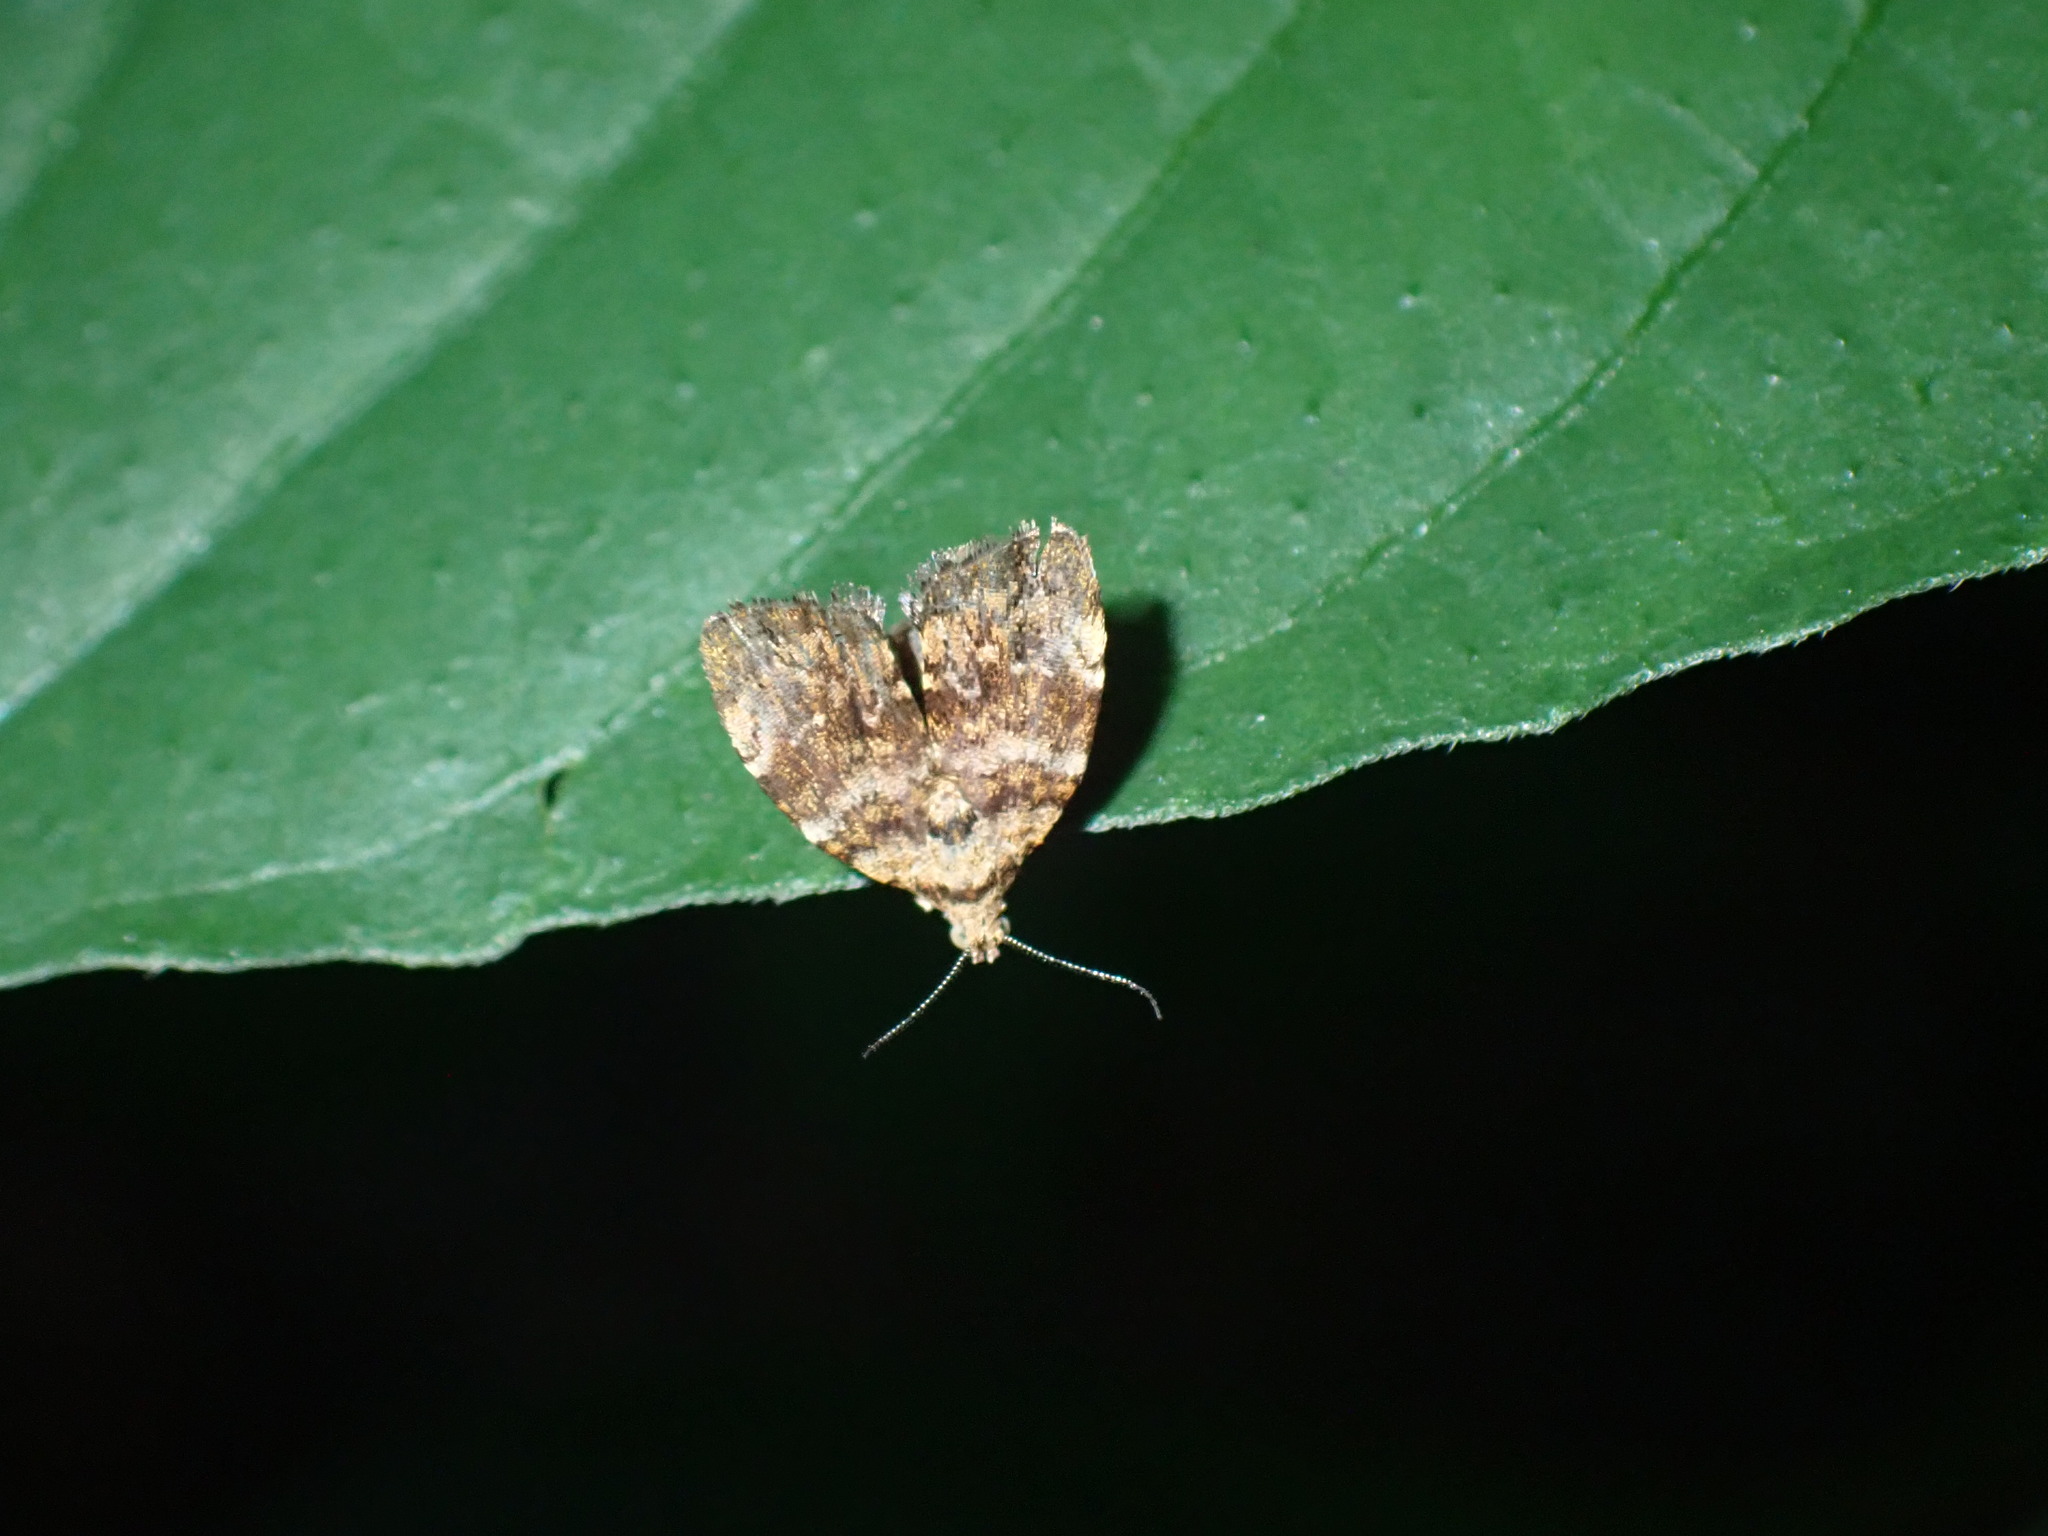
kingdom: Animalia
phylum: Arthropoda
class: Insecta
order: Lepidoptera
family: Choreutidae
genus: Choreutis
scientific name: Choreutis ophiosema
